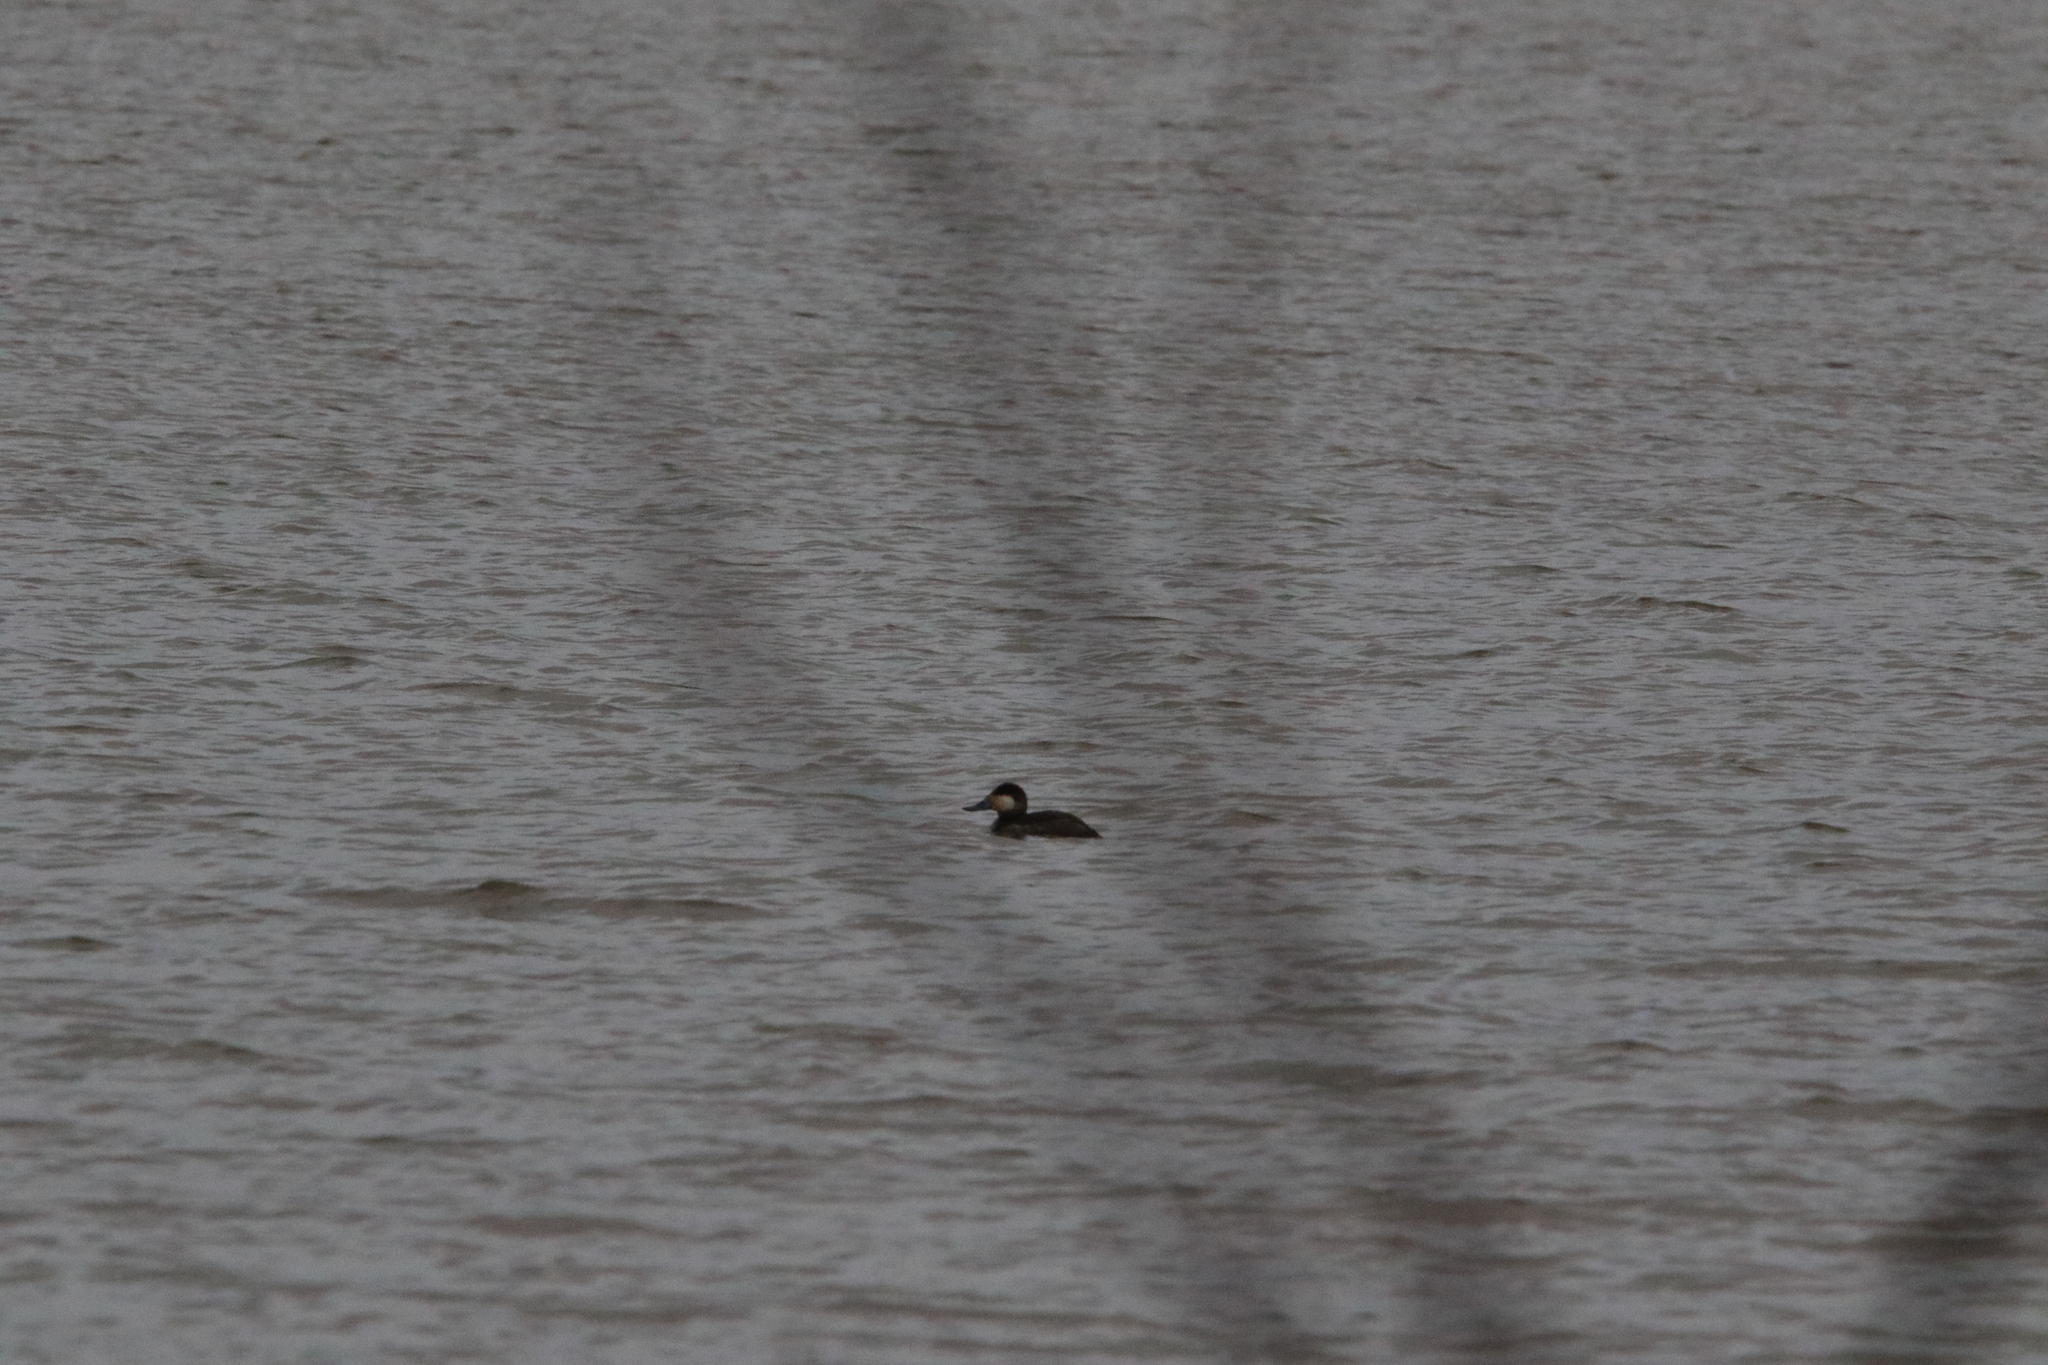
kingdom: Animalia
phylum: Chordata
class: Aves
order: Anseriformes
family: Anatidae
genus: Oxyura
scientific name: Oxyura jamaicensis
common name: Ruddy duck
